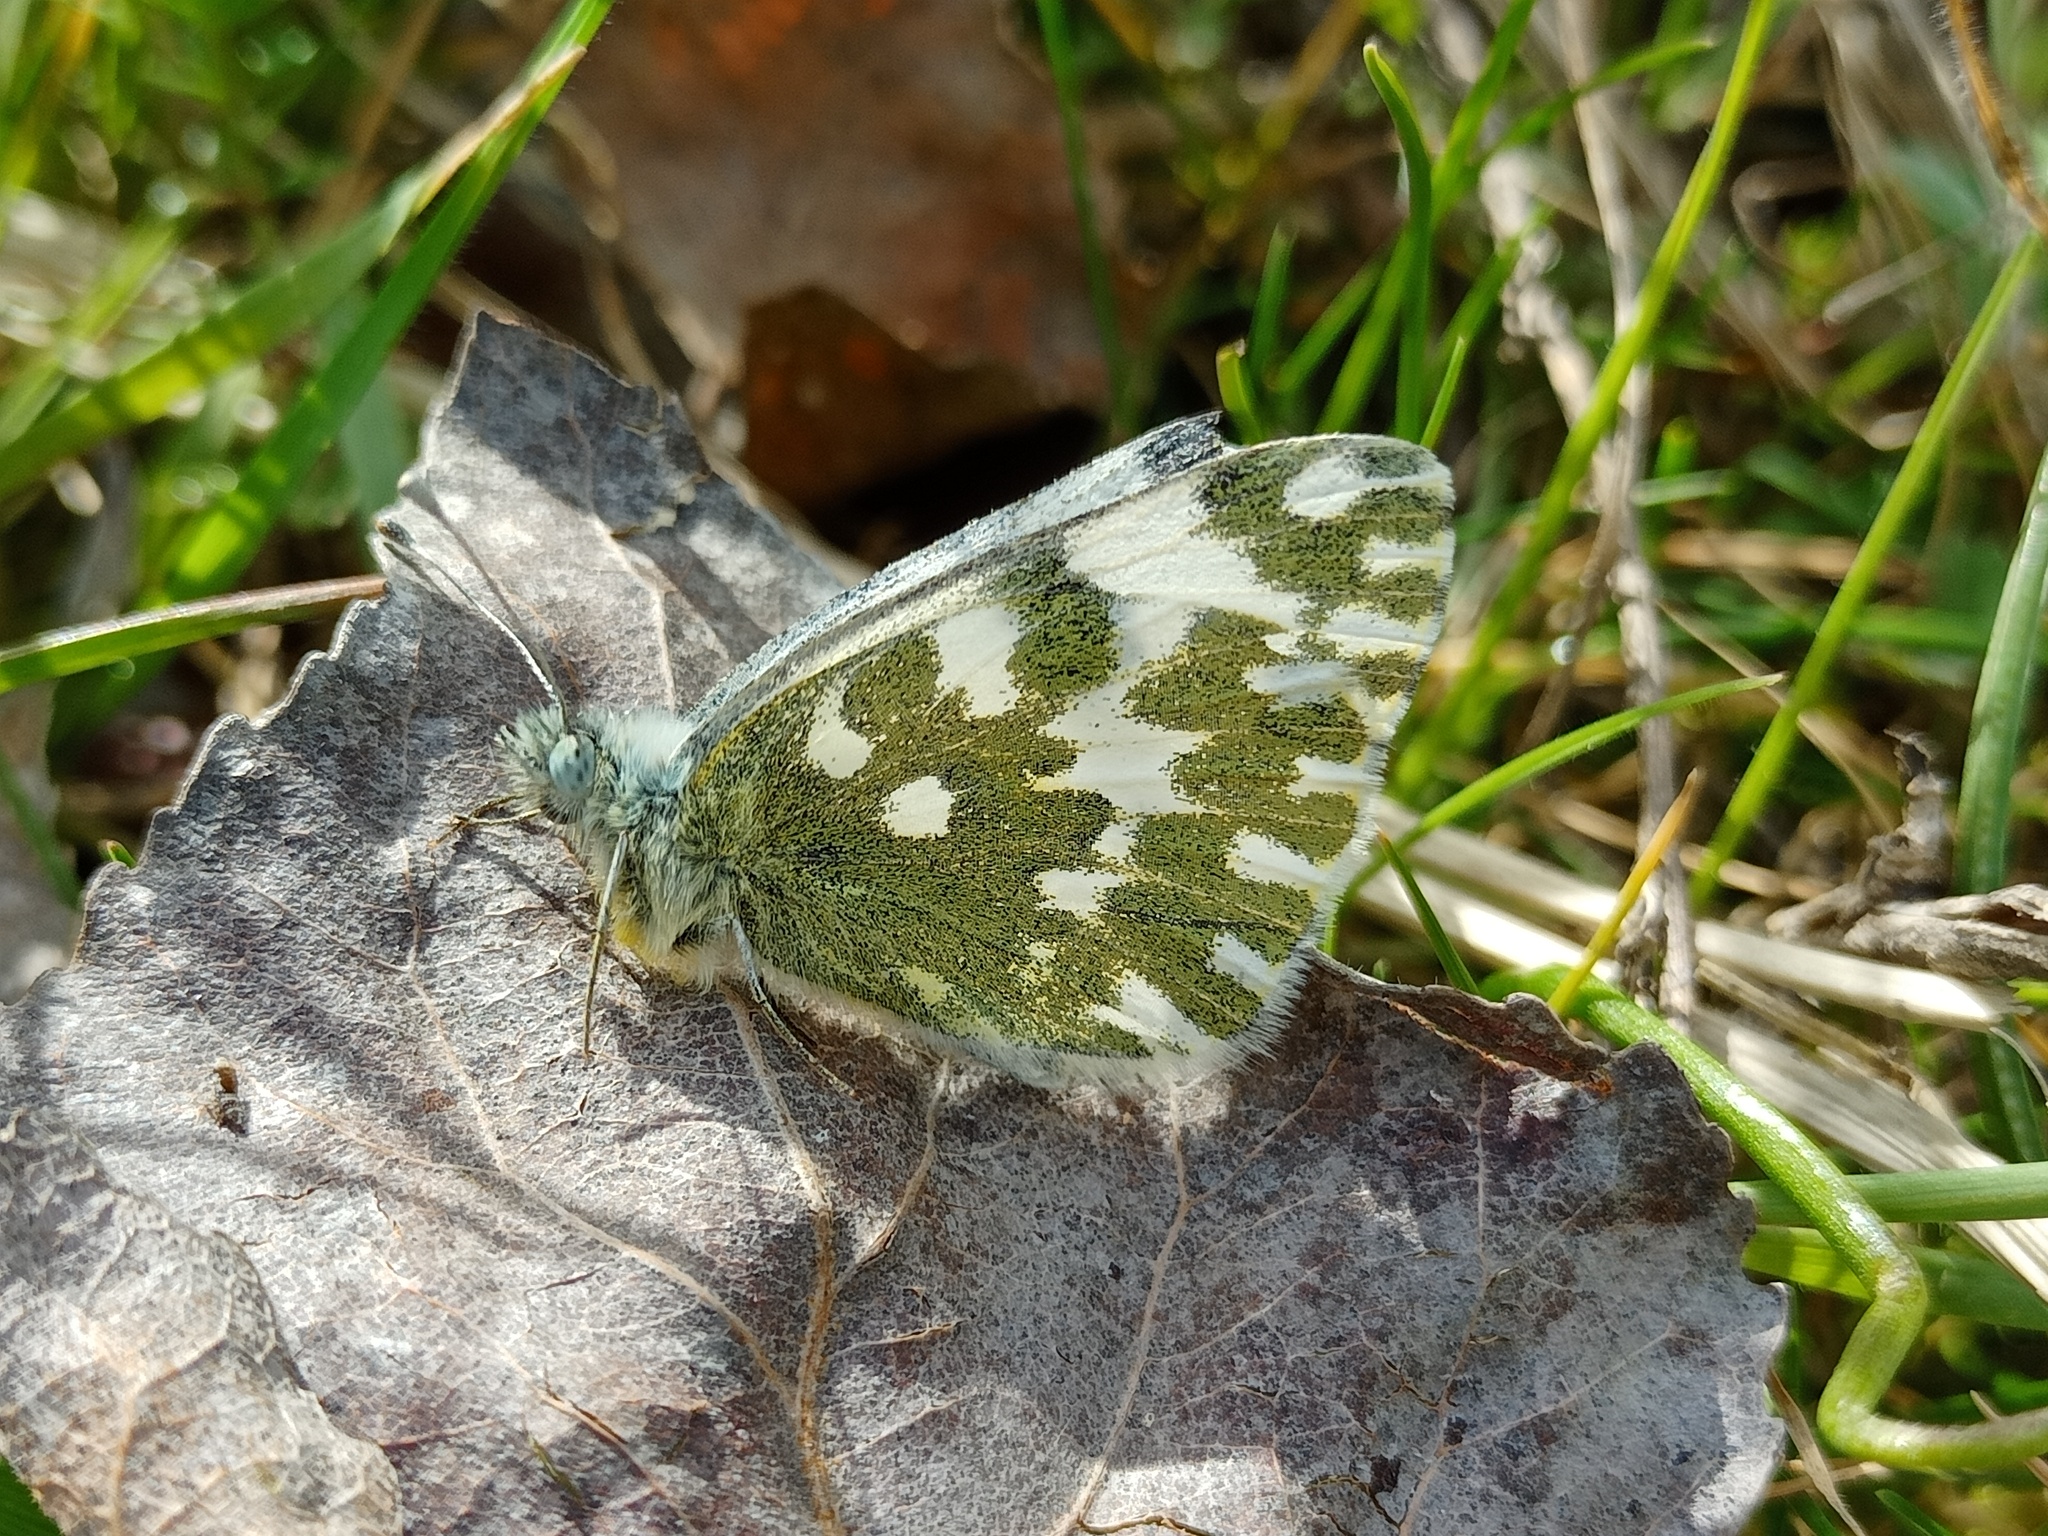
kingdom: Animalia
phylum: Arthropoda
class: Insecta
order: Lepidoptera
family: Pieridae
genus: Pontia
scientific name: Pontia edusa
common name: Eastern bath white
